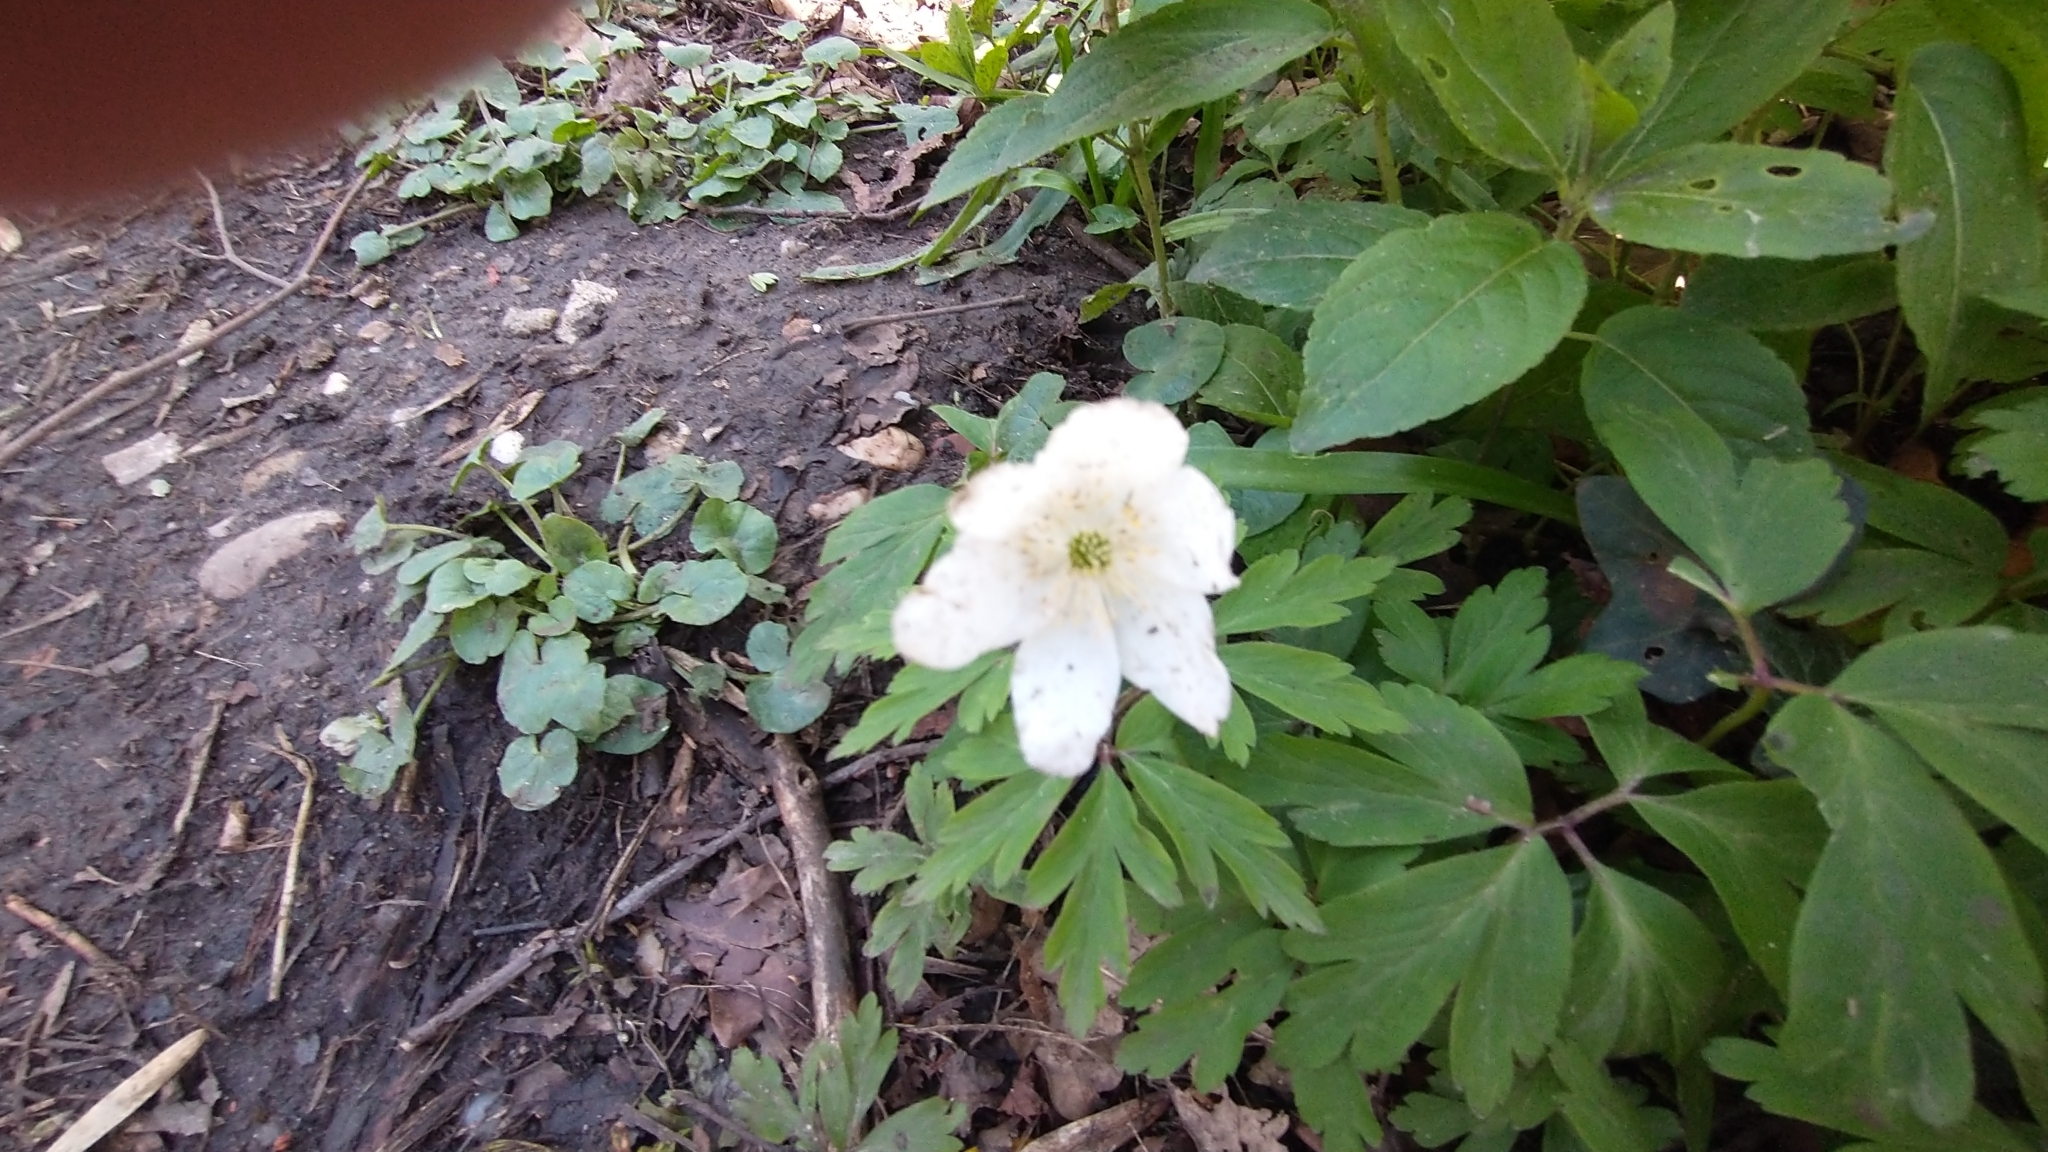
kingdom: Plantae
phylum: Tracheophyta
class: Magnoliopsida
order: Ranunculales
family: Ranunculaceae
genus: Anemone
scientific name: Anemone nemorosa
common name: Wood anemone
